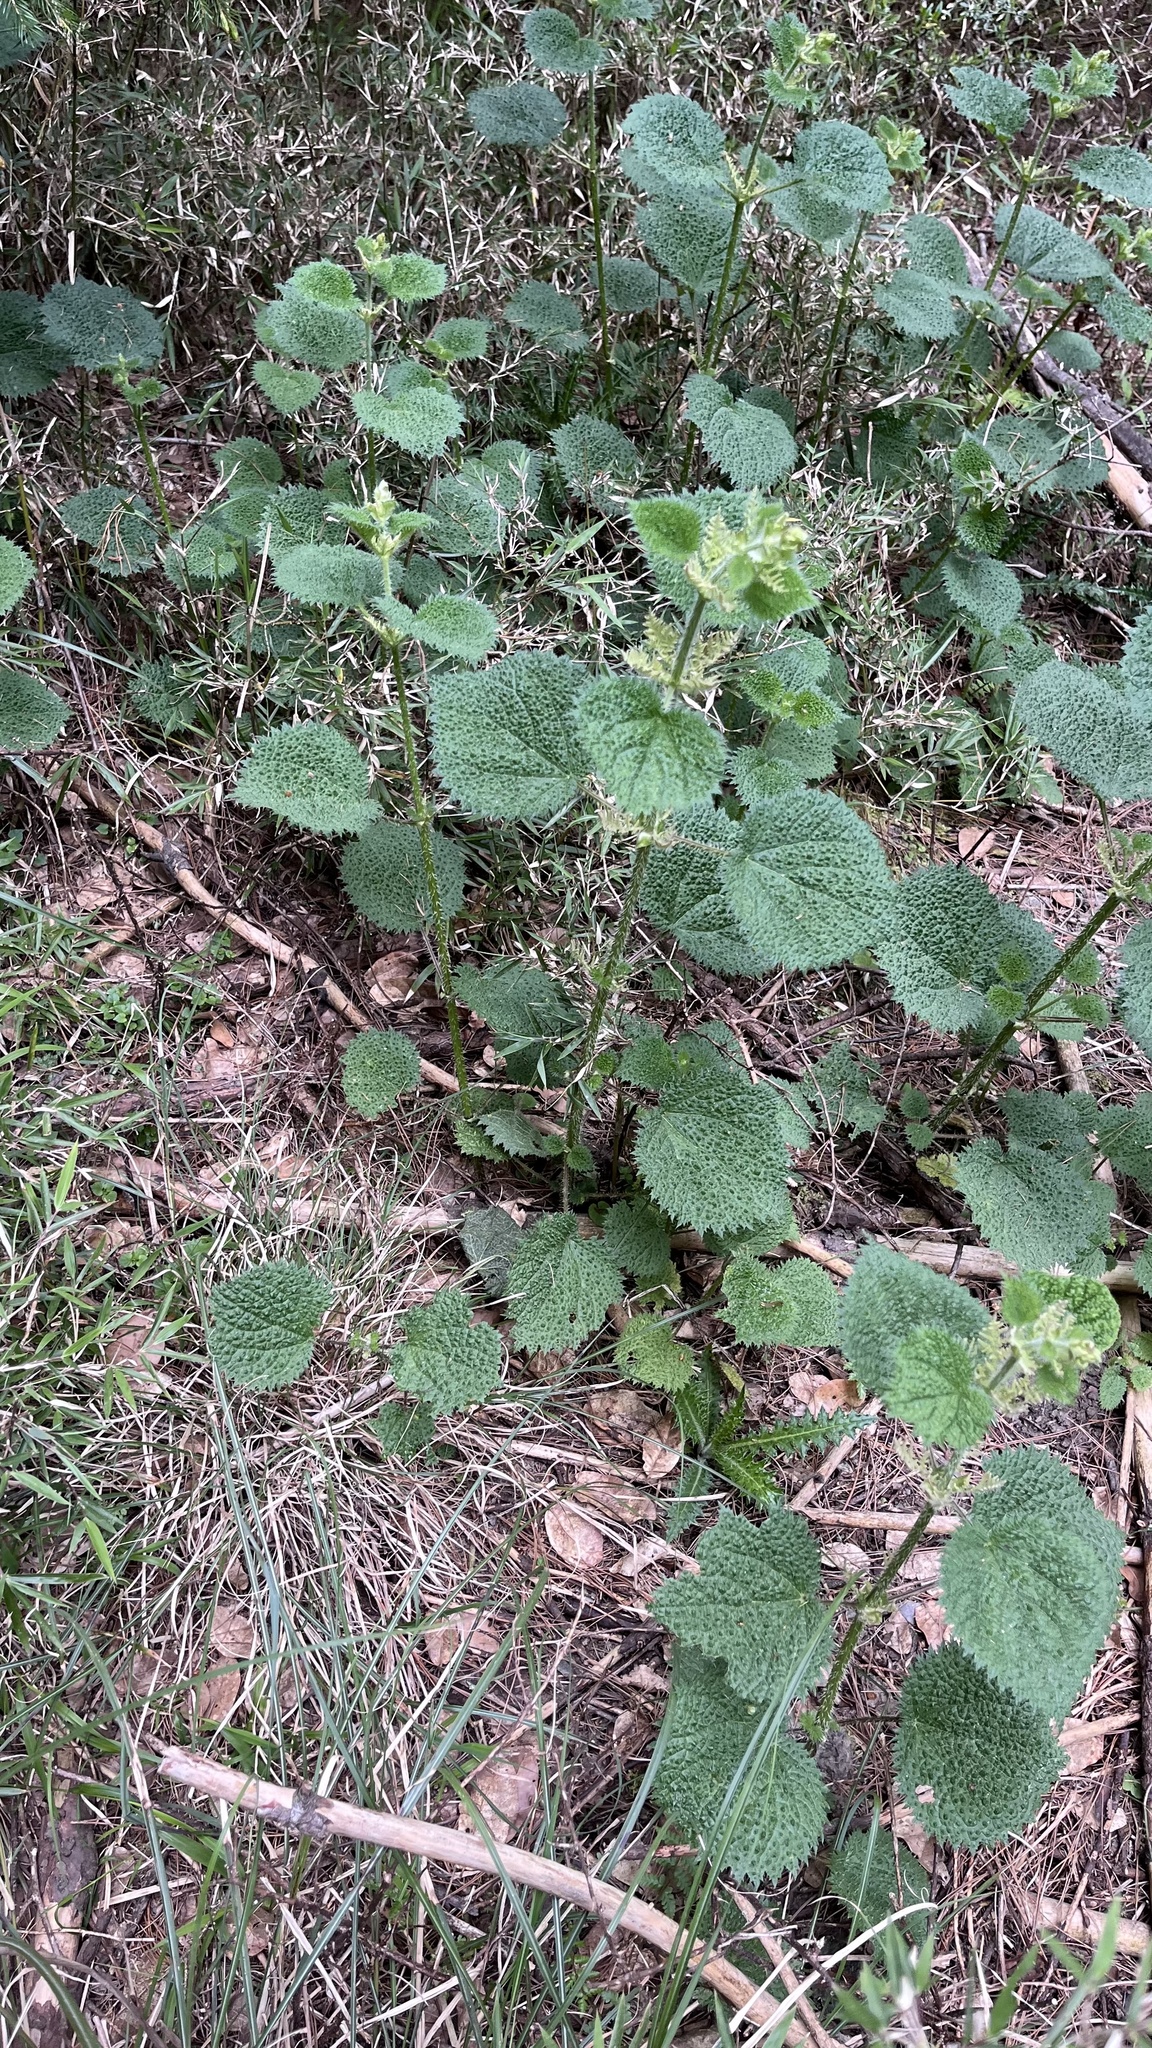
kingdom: Plantae
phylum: Tracheophyta
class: Magnoliopsida
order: Rosales
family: Urticaceae
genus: Urtica
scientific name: Urtica thunbergiana
